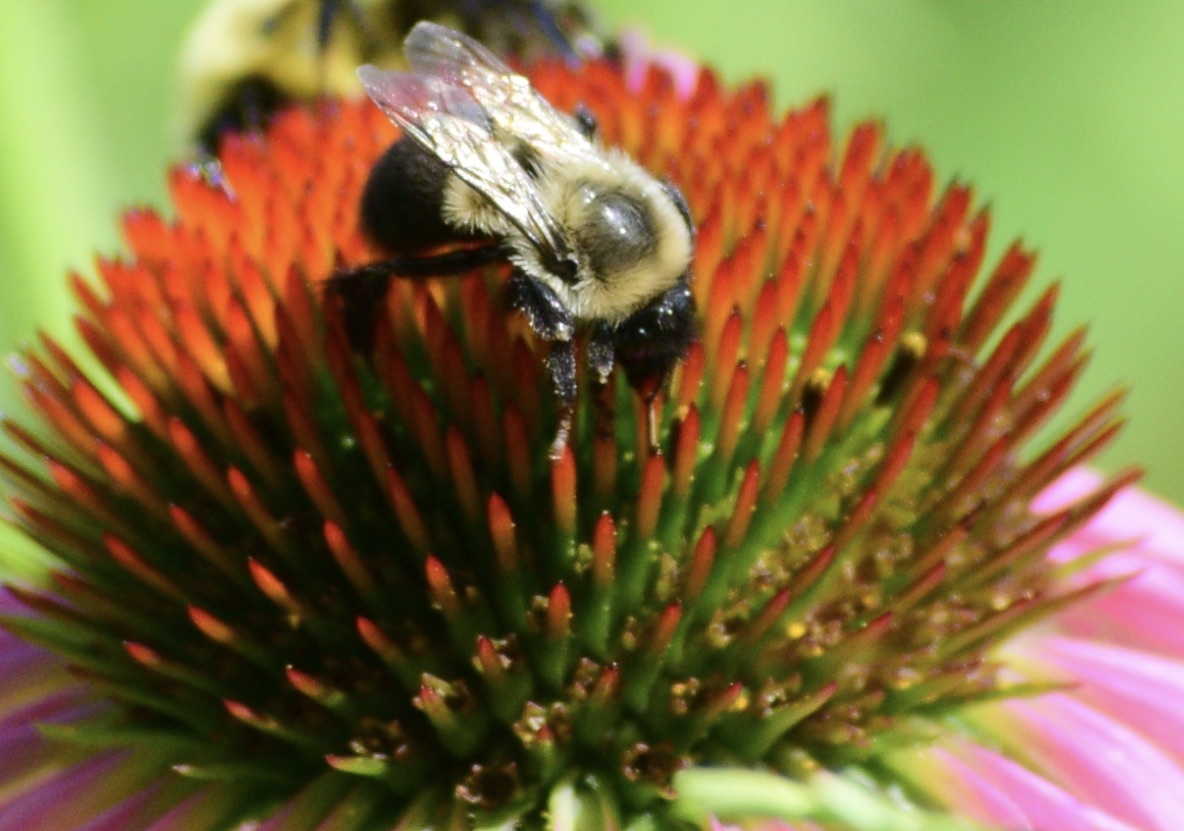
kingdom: Animalia
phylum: Arthropoda
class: Insecta
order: Hymenoptera
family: Apidae
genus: Bombus
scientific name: Bombus impatiens
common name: Common eastern bumble bee
